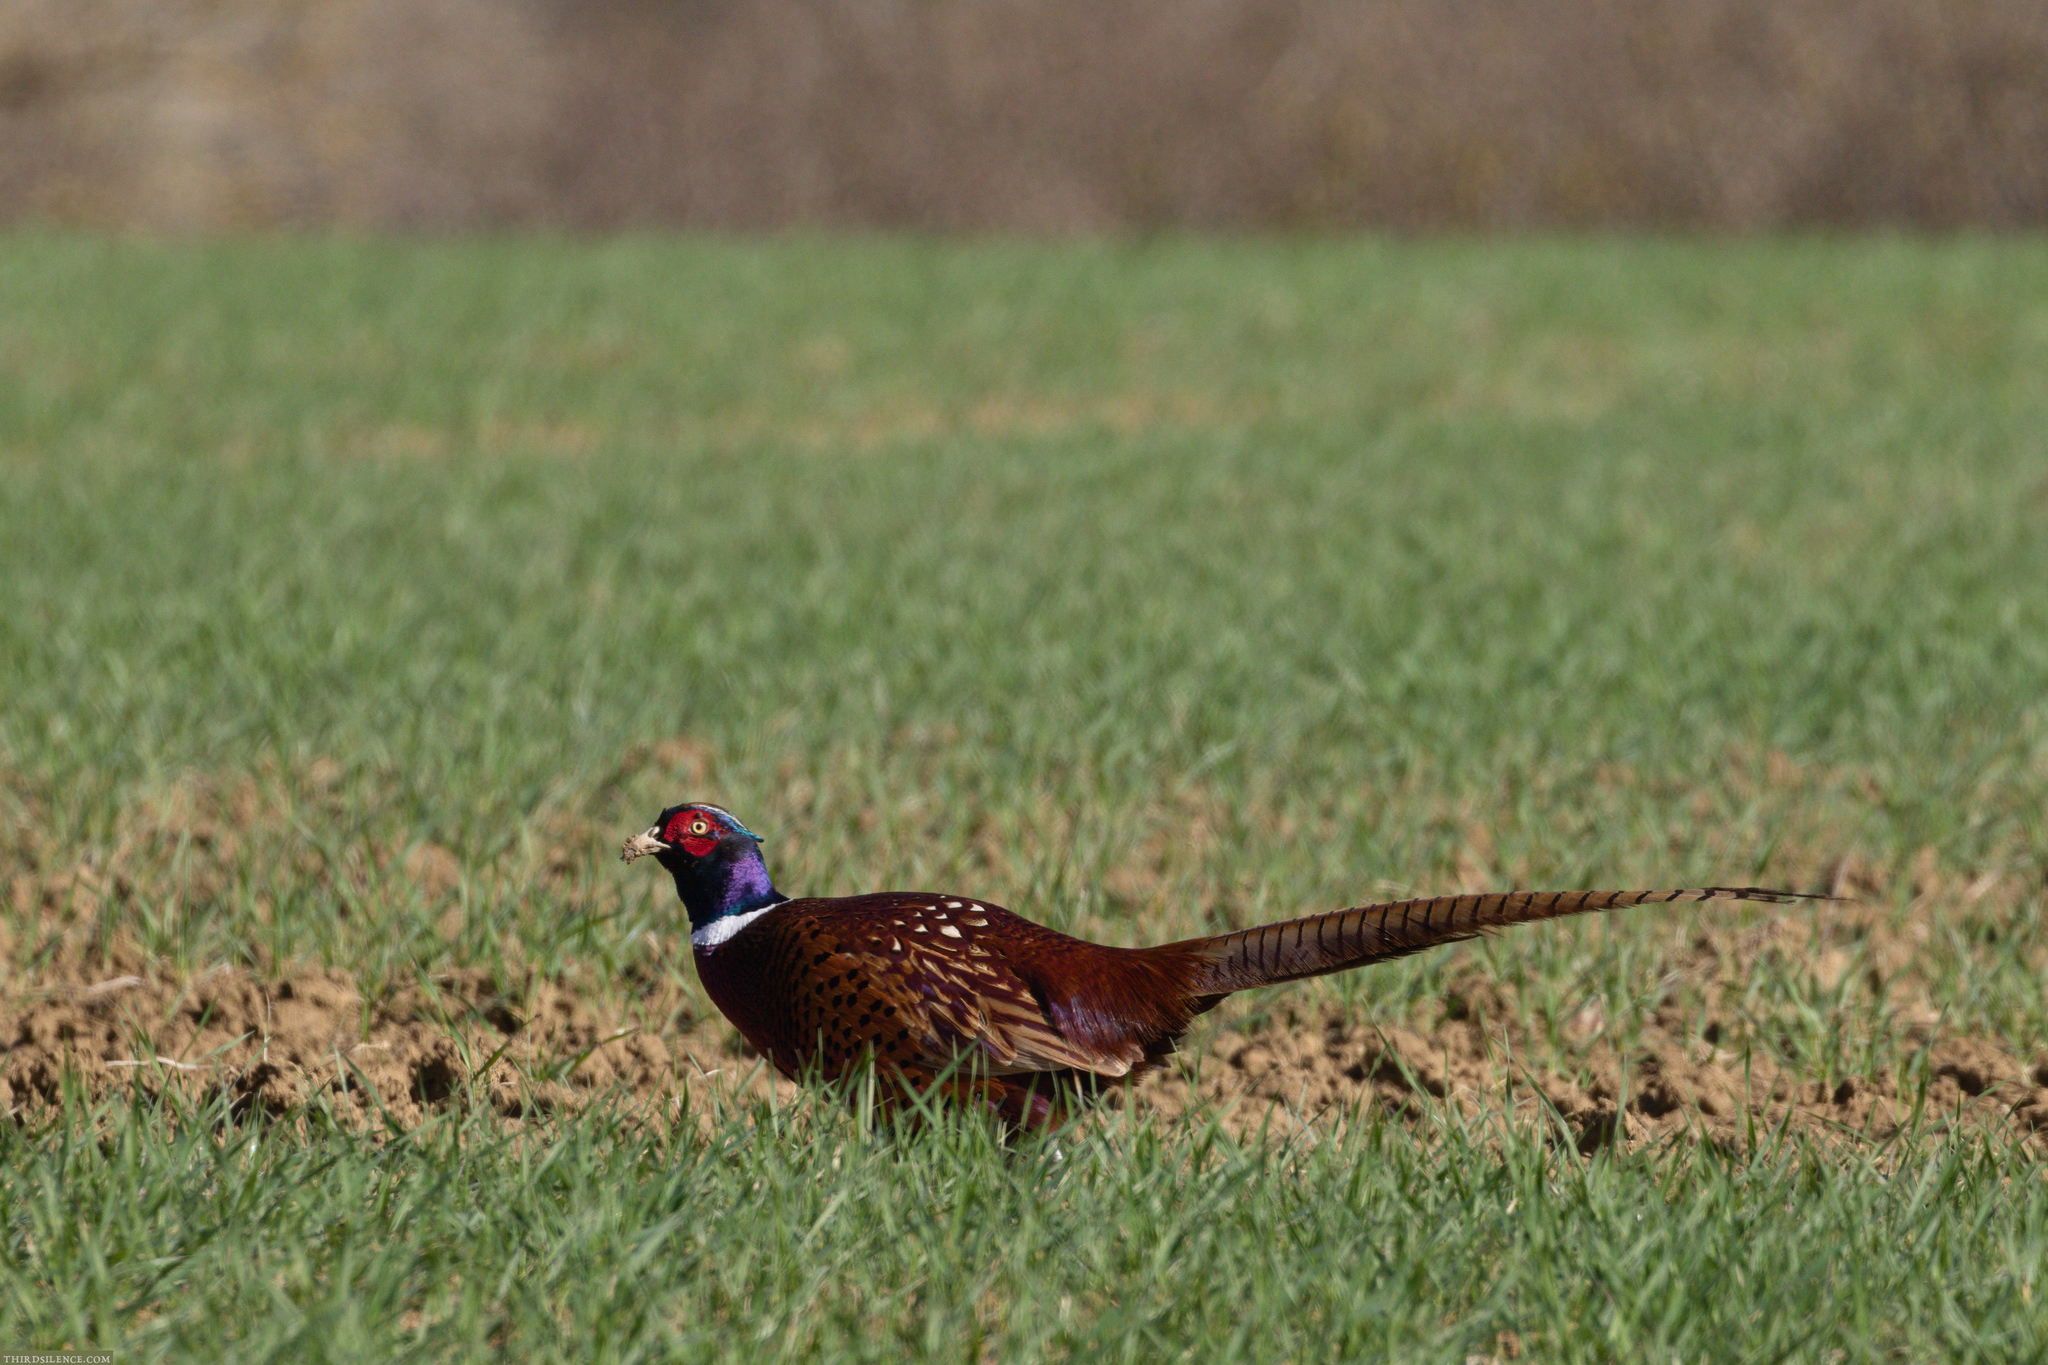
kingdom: Animalia
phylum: Chordata
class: Aves
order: Galliformes
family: Phasianidae
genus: Phasianus
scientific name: Phasianus colchicus
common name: Common pheasant
